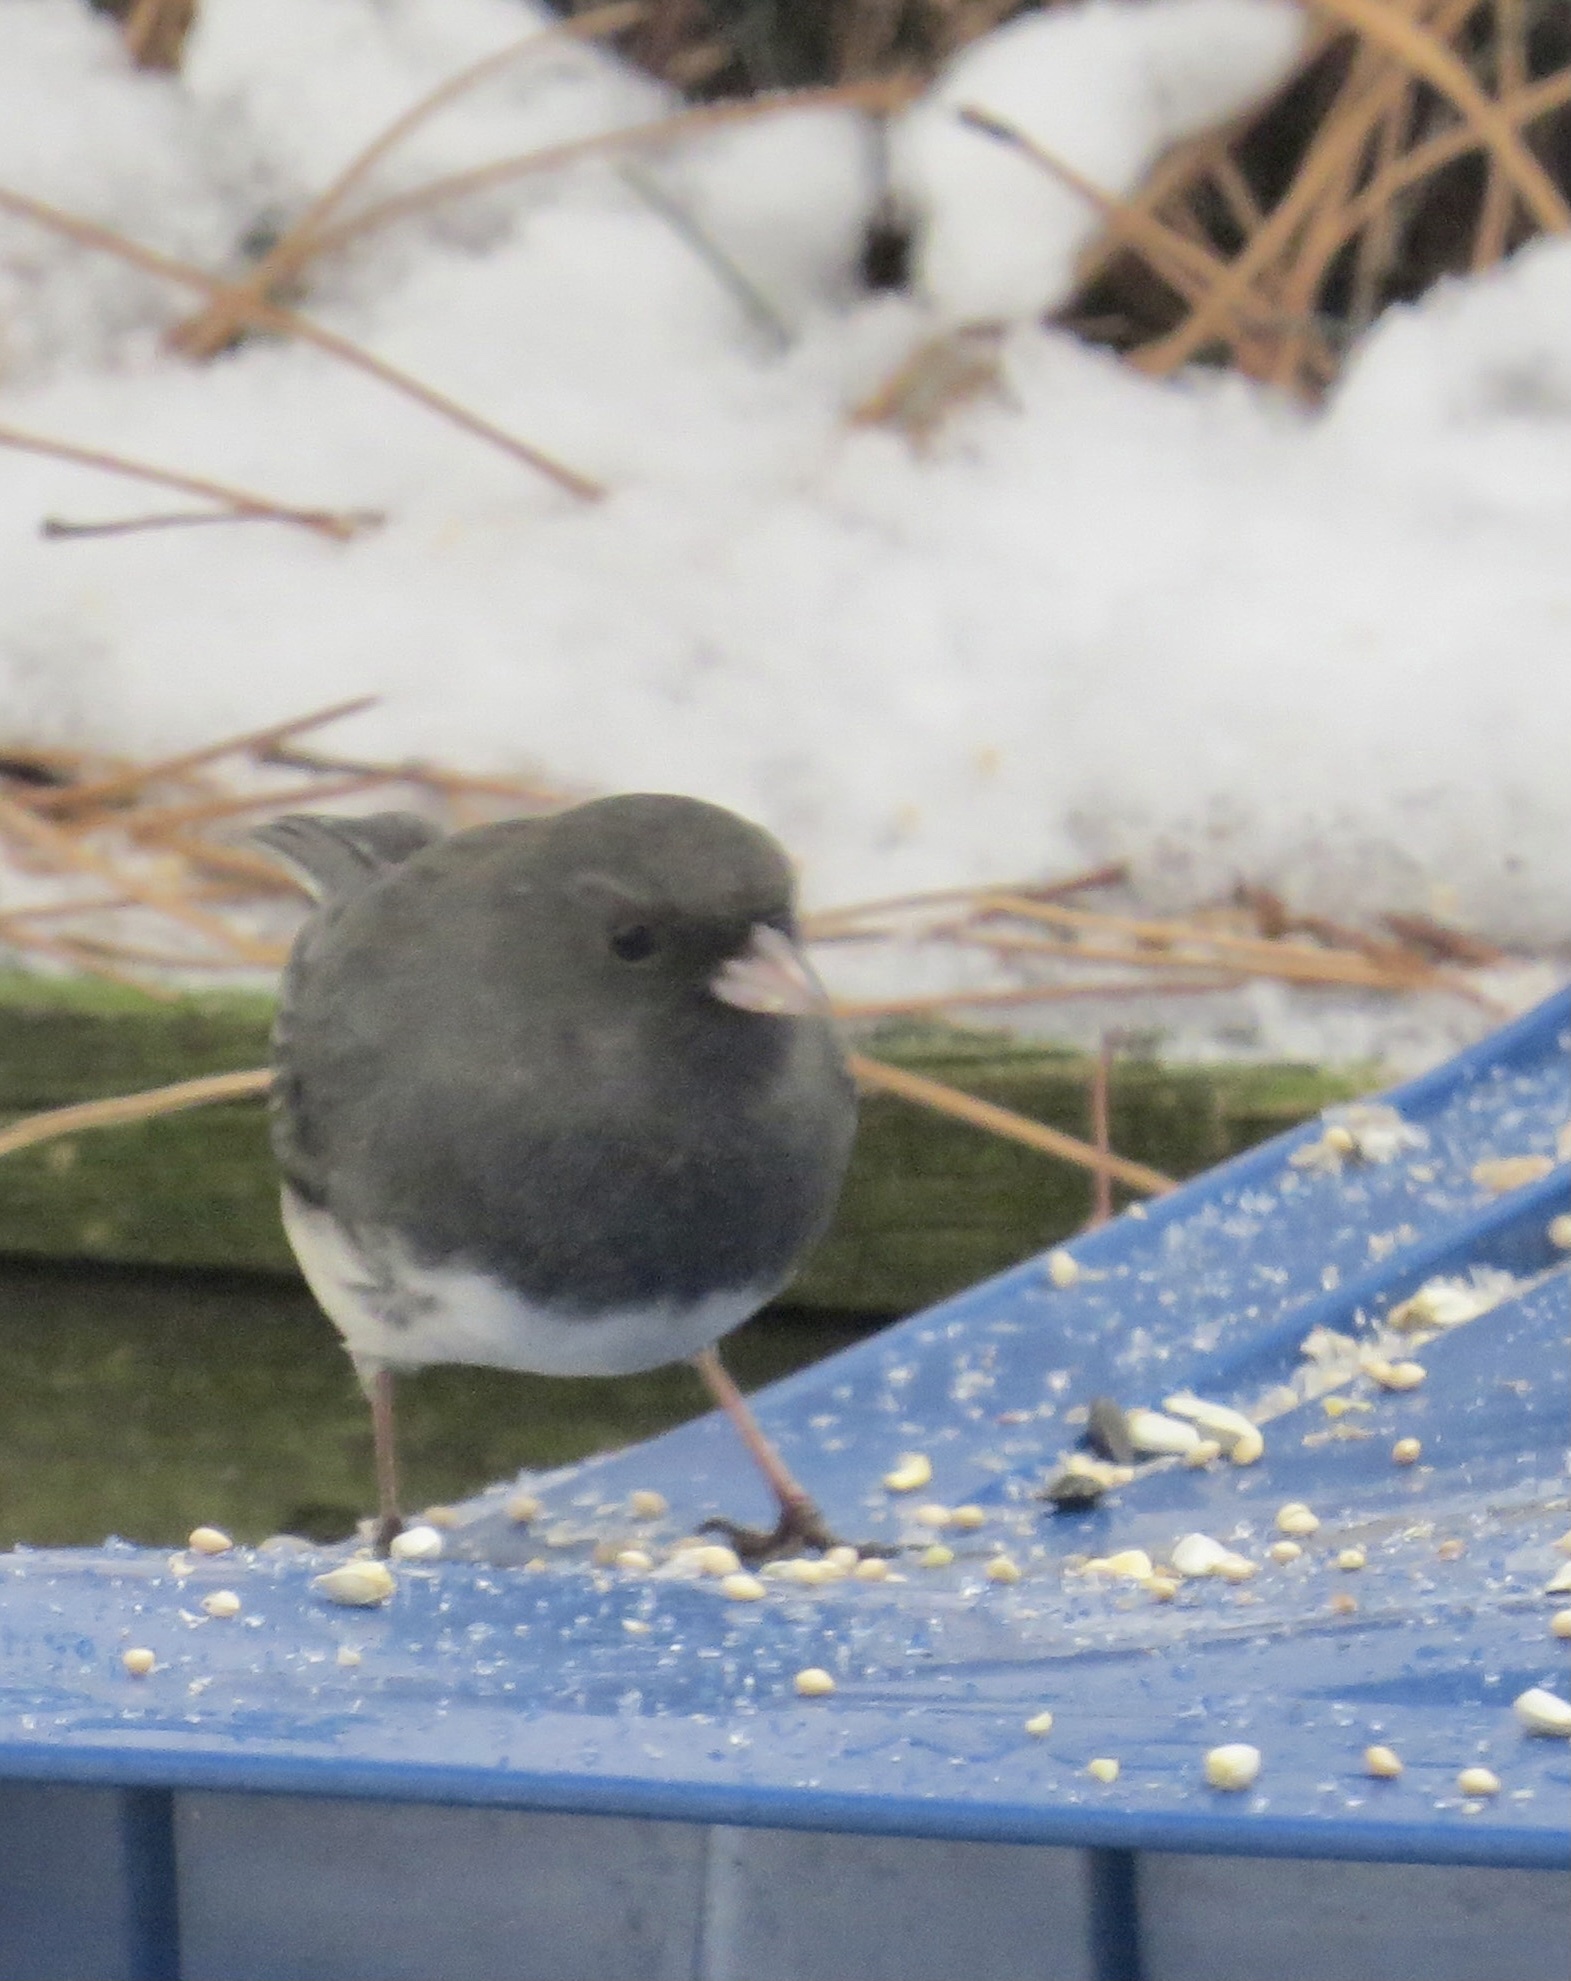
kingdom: Animalia
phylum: Chordata
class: Aves
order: Passeriformes
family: Passerellidae
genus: Junco
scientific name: Junco hyemalis
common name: Dark-eyed junco
